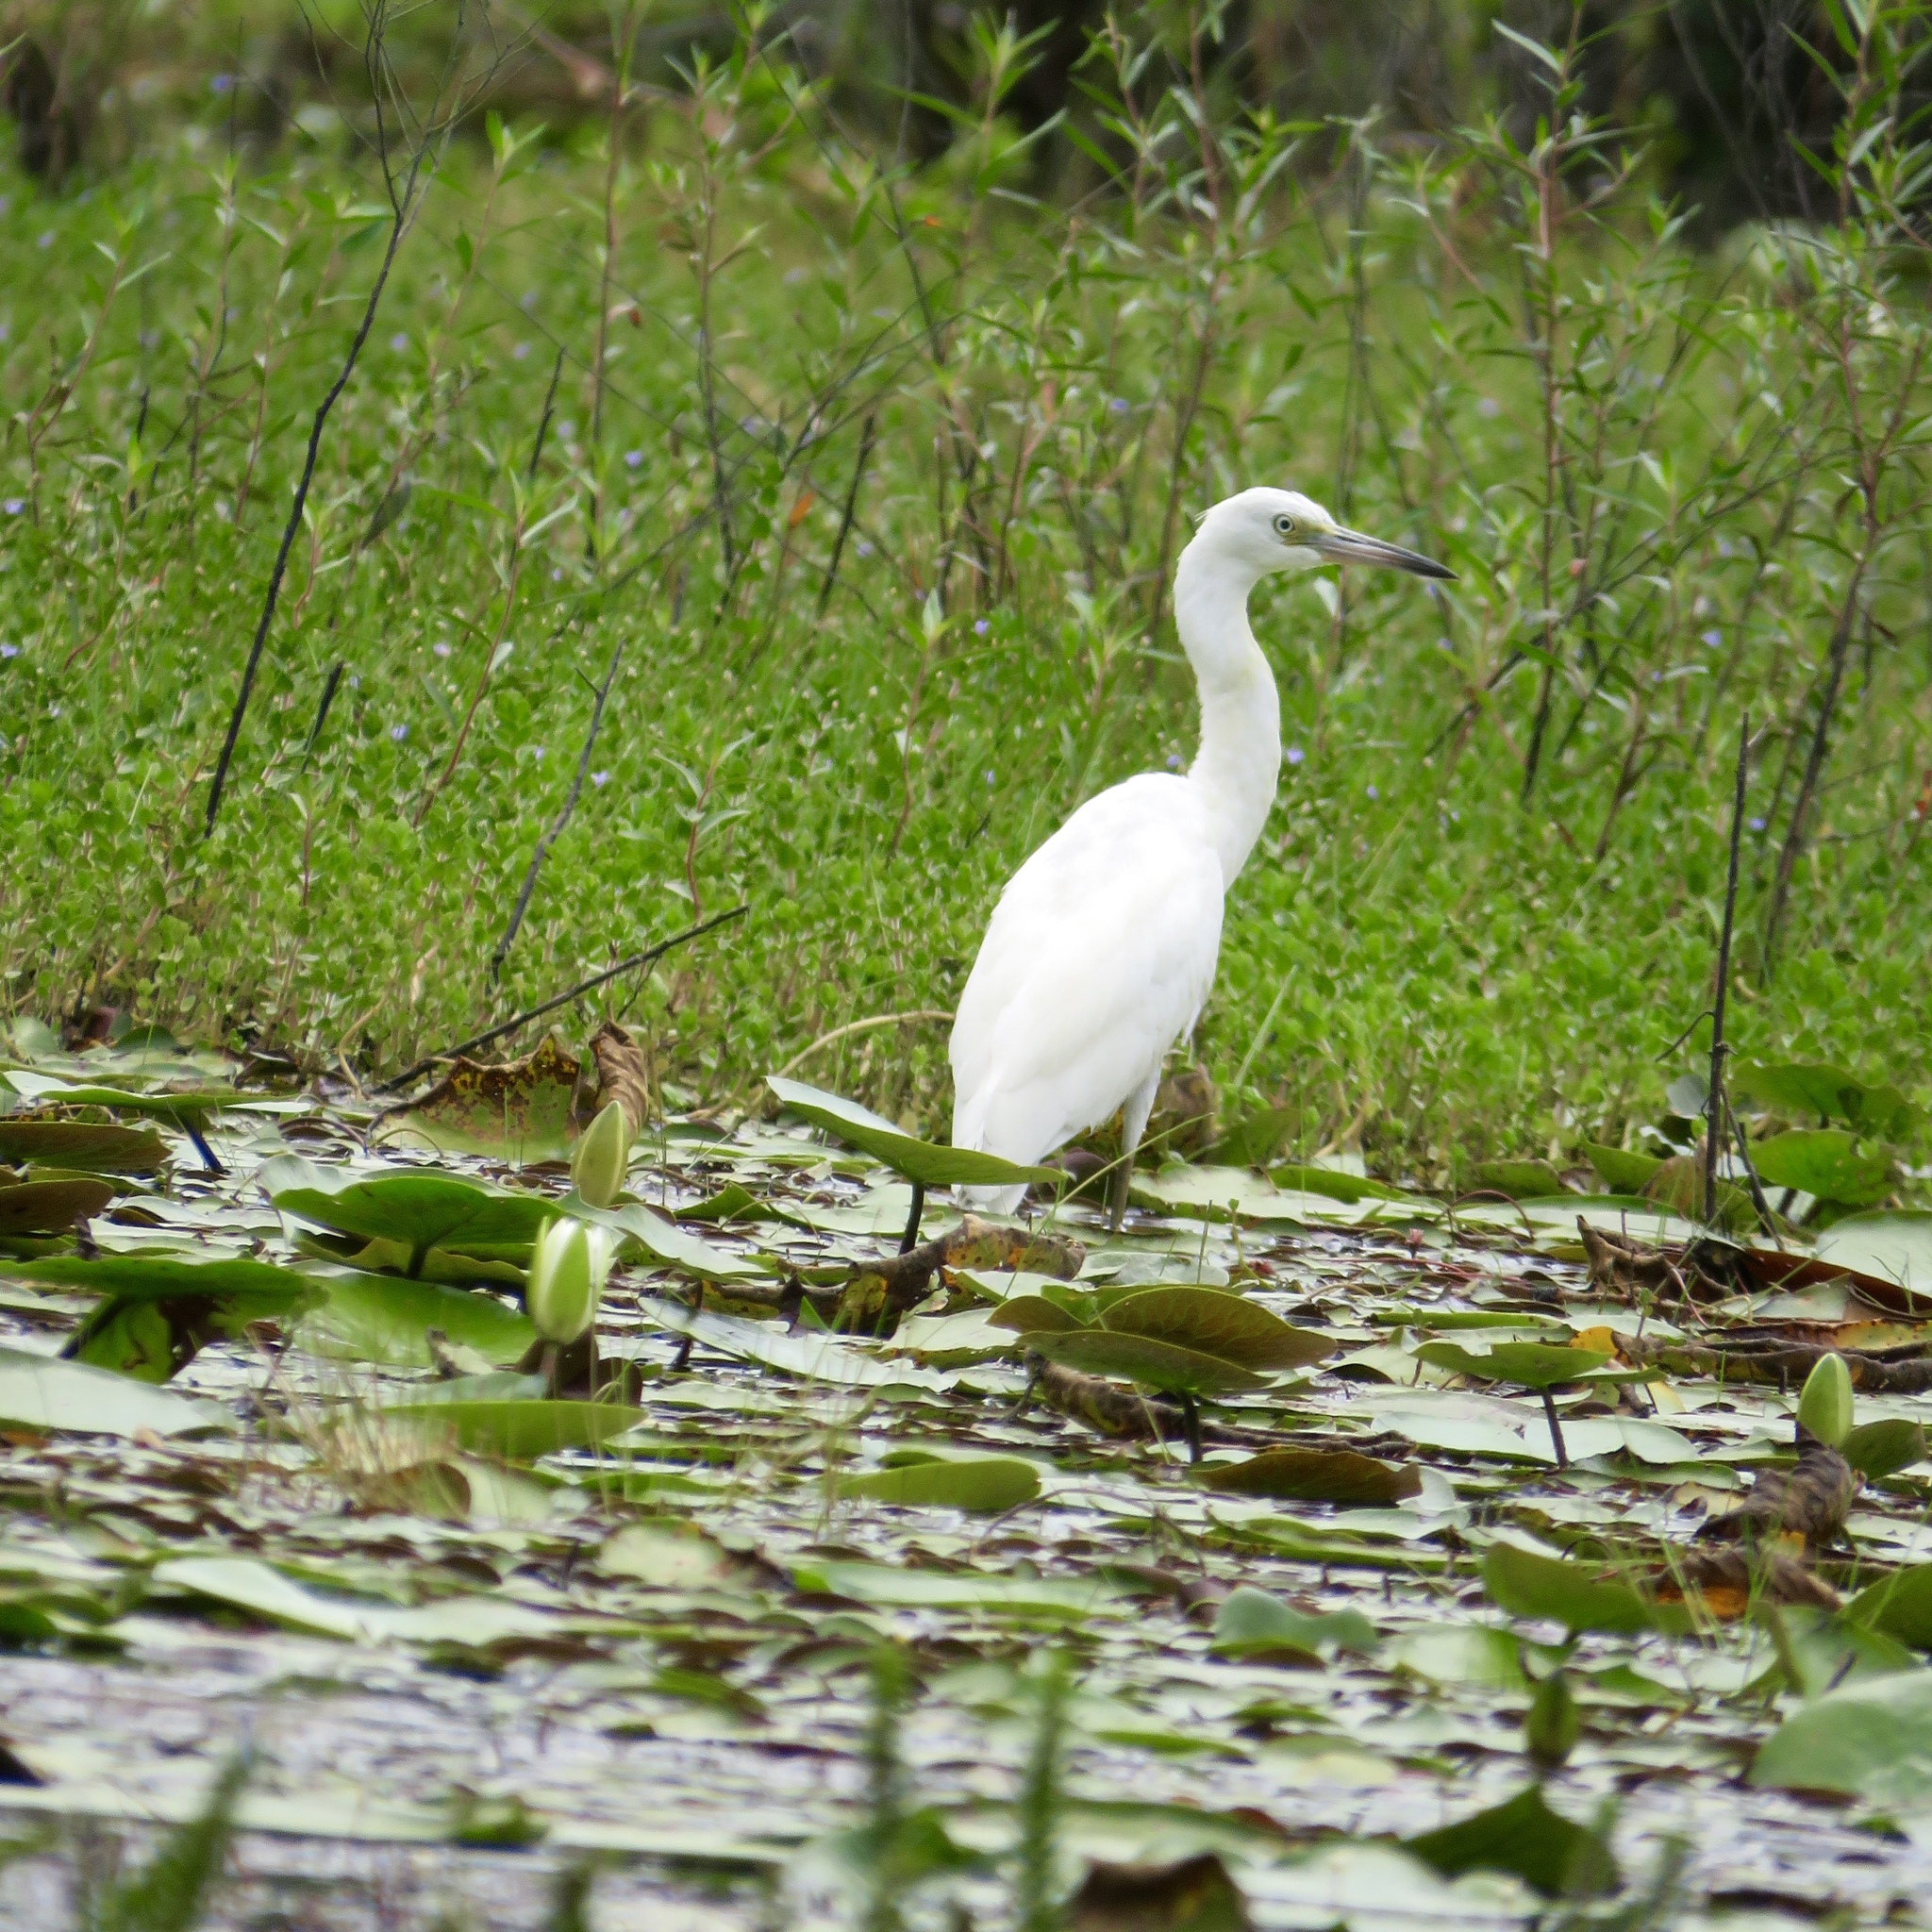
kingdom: Animalia
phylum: Chordata
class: Aves
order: Pelecaniformes
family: Ardeidae
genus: Egretta
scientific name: Egretta caerulea
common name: Little blue heron
